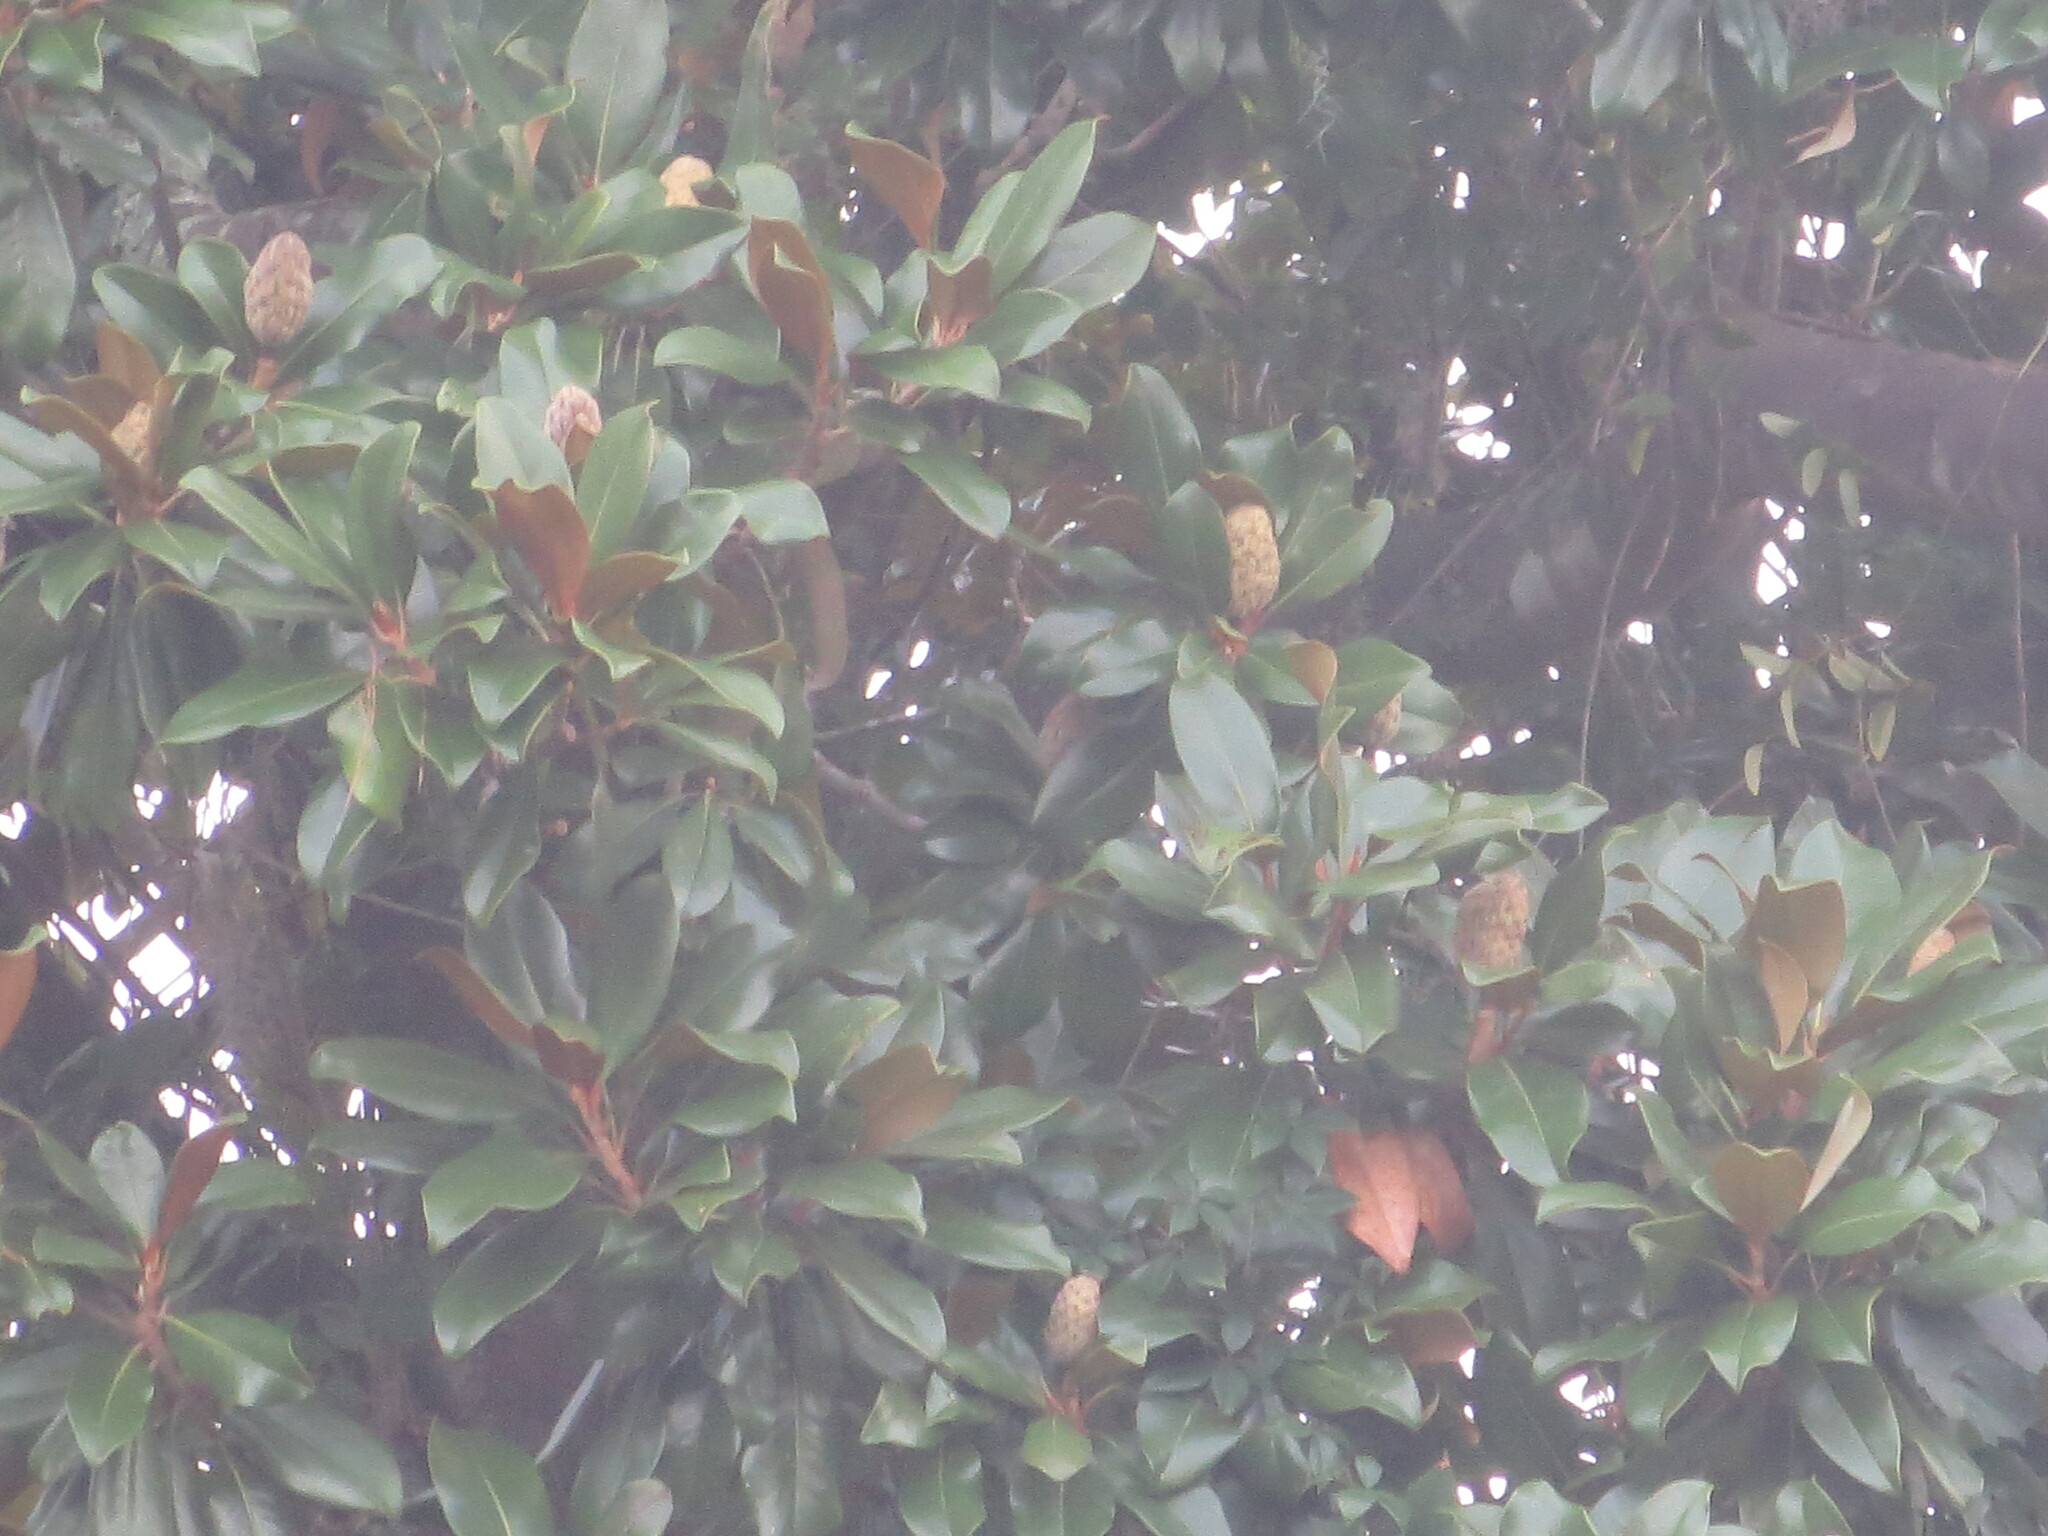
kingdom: Plantae
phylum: Tracheophyta
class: Magnoliopsida
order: Magnoliales
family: Magnoliaceae
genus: Magnolia
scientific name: Magnolia grandiflora
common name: Southern magnolia
